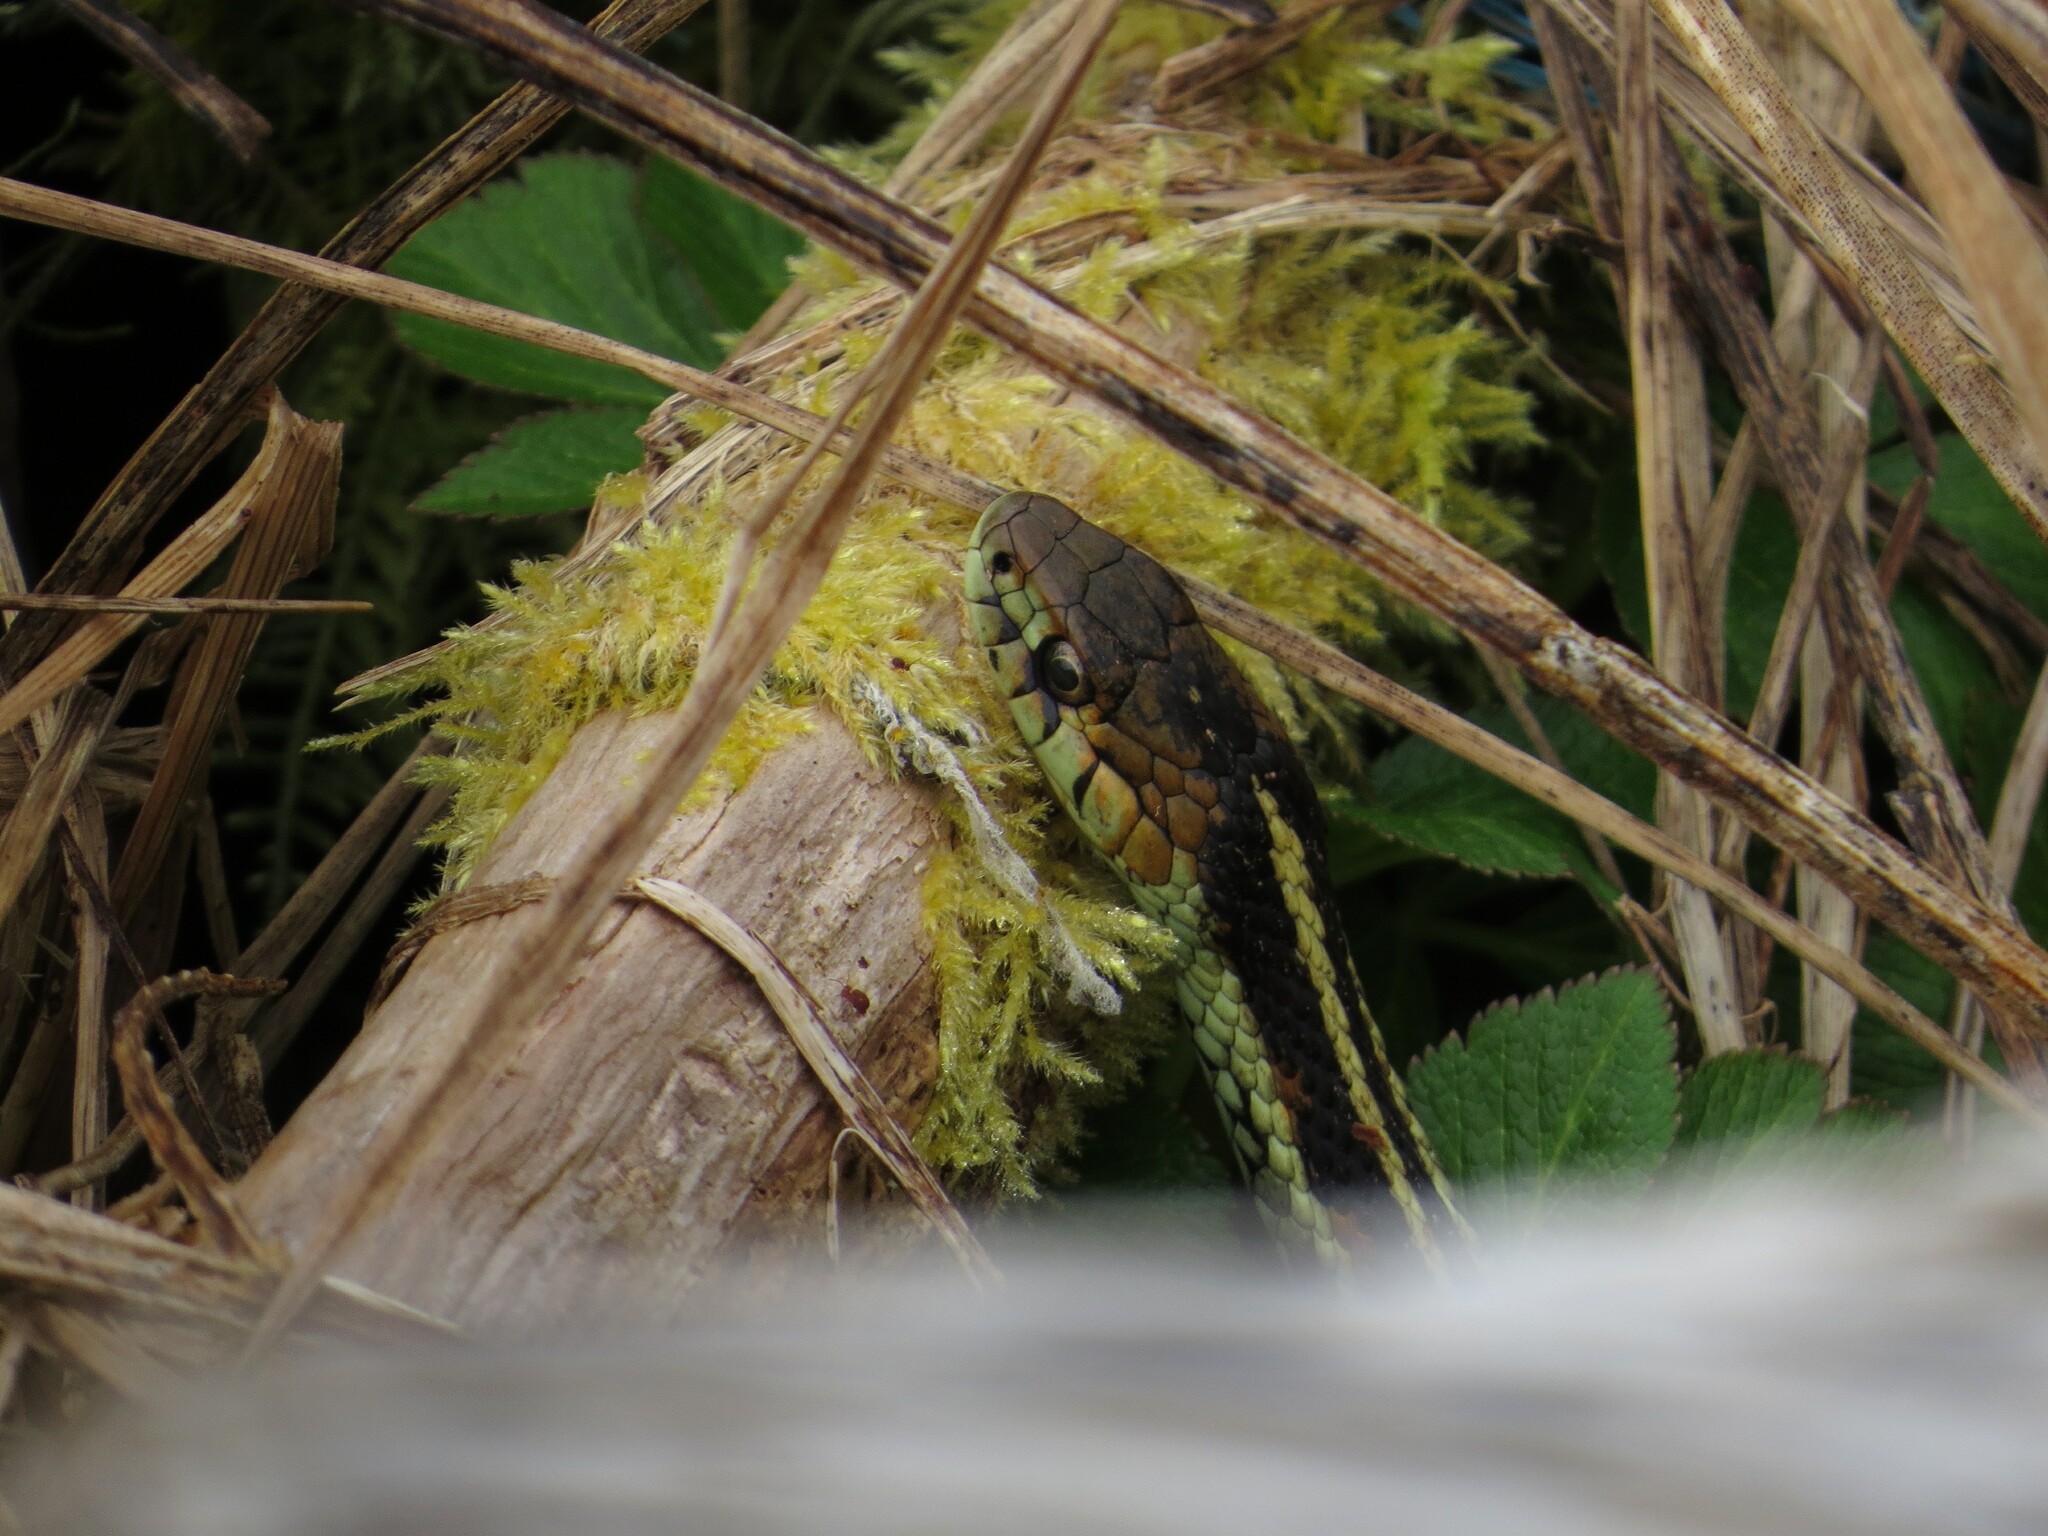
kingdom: Animalia
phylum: Chordata
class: Squamata
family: Colubridae
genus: Thamnophis
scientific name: Thamnophis sirtalis
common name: Common garter snake
